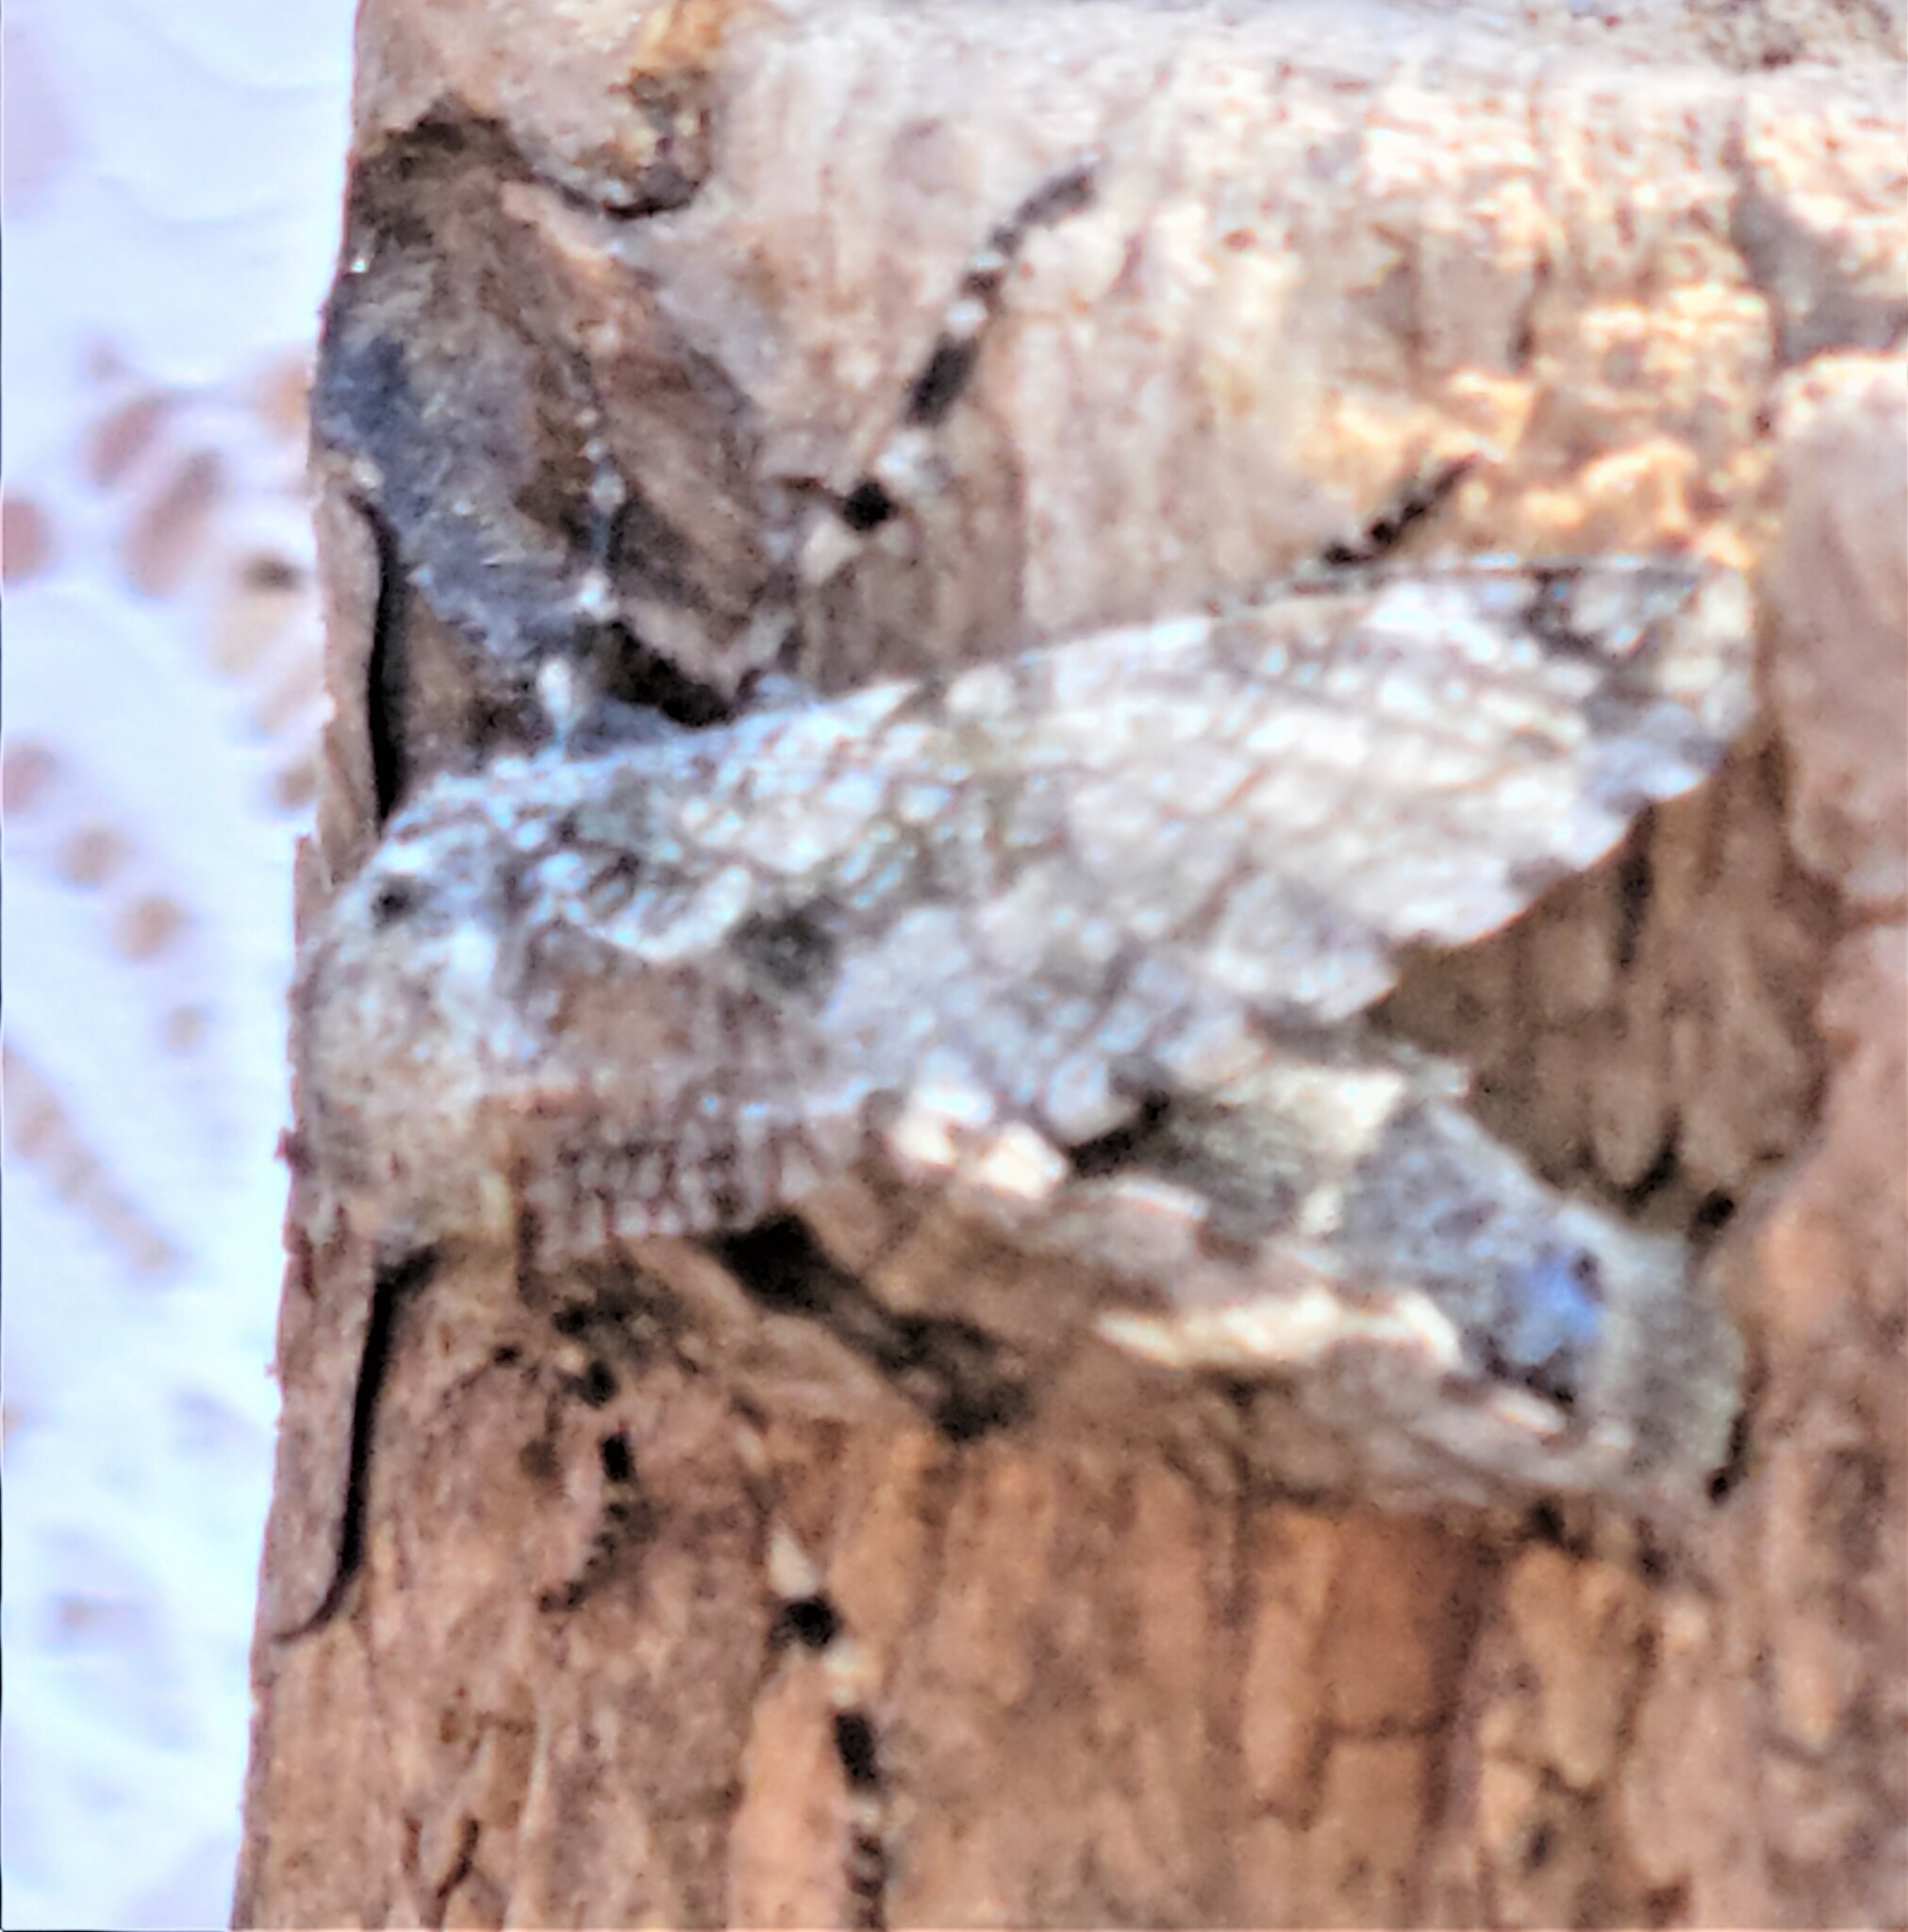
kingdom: Animalia
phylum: Arthropoda
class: Insecta
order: Lepidoptera
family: Cossidae
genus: Prionoxystus
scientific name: Prionoxystus robiniae
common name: Carpenterworm
